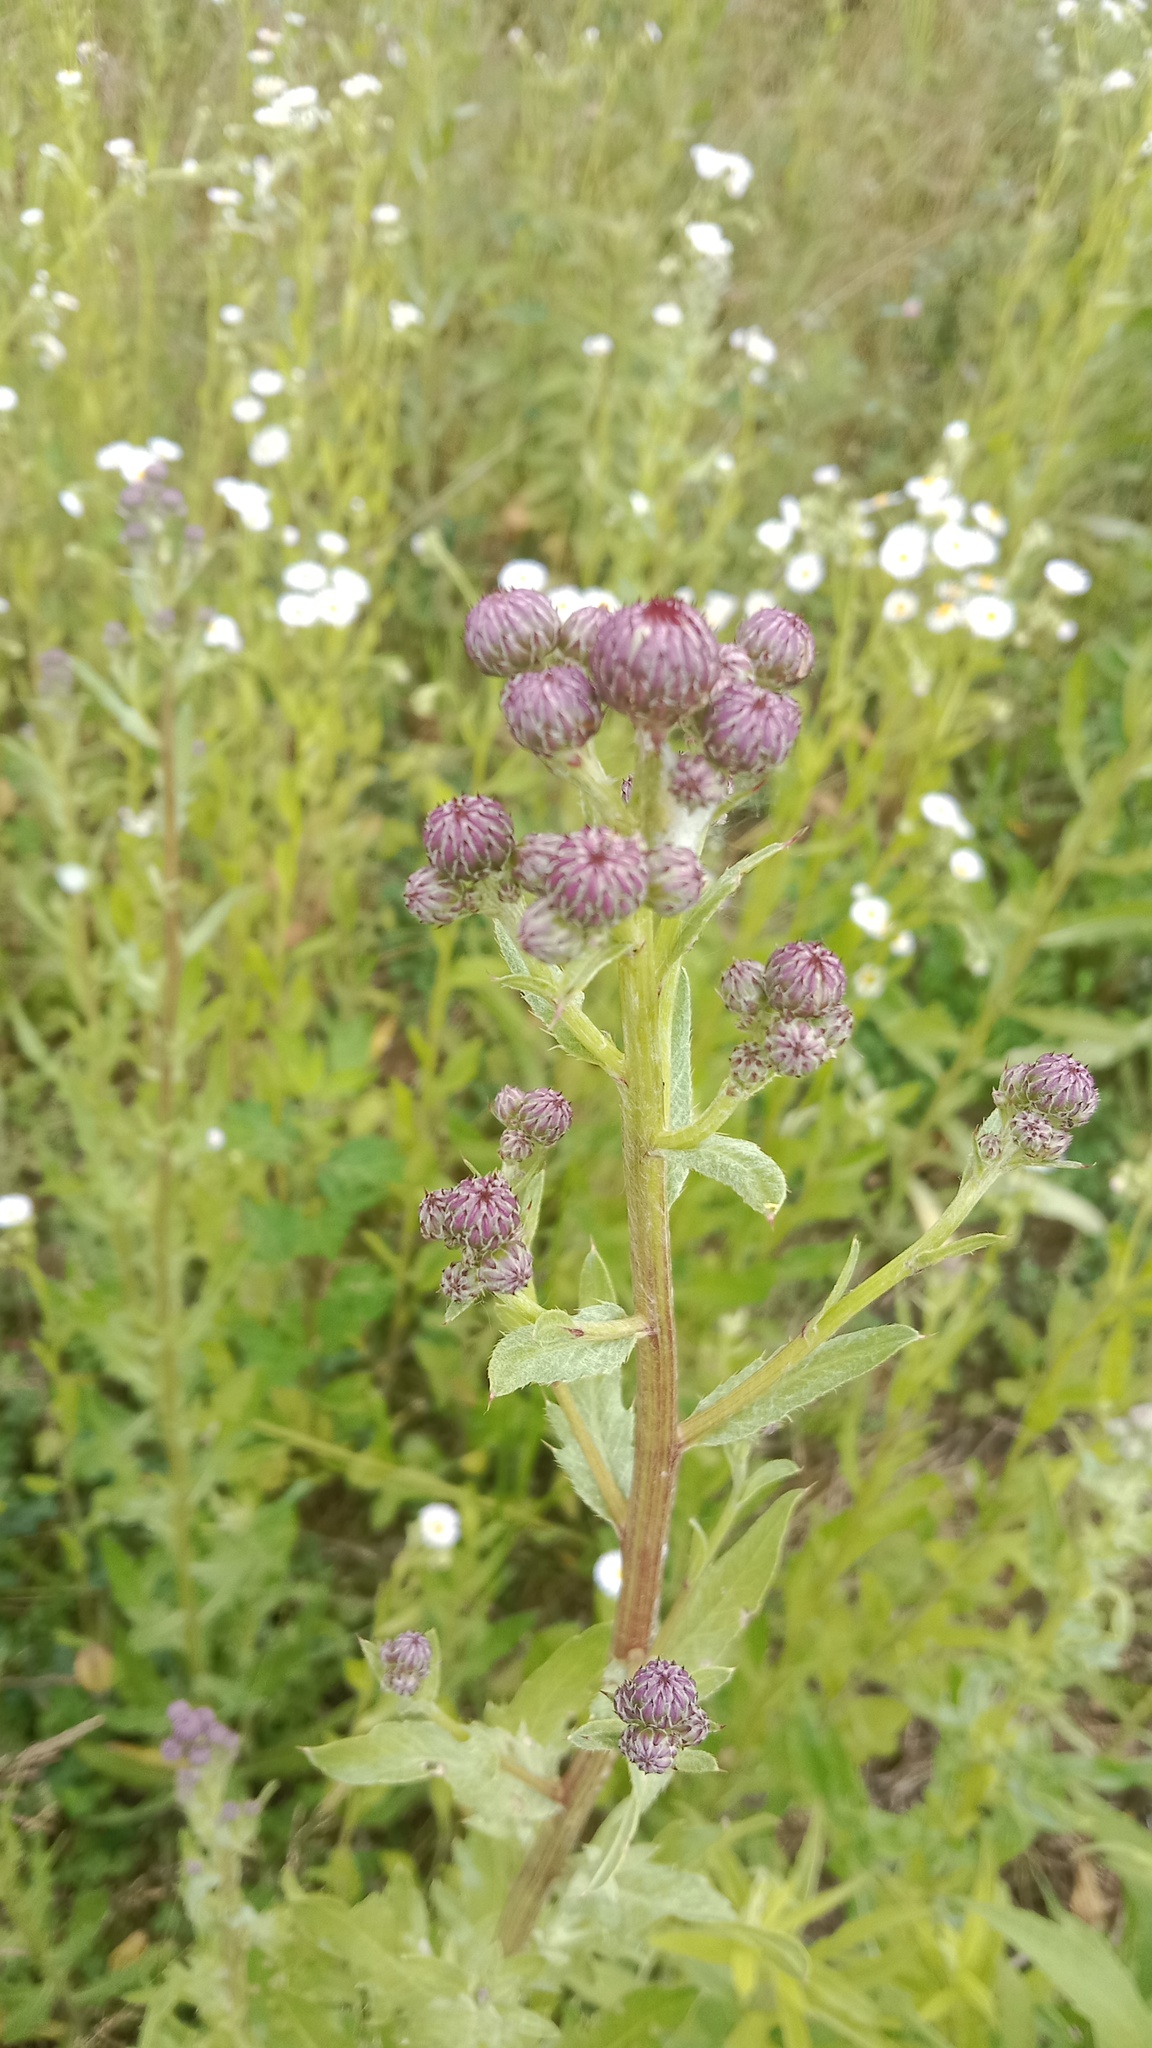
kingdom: Plantae
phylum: Tracheophyta
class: Magnoliopsida
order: Asterales
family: Asteraceae
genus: Cirsium
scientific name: Cirsium arvense
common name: Creeping thistle
